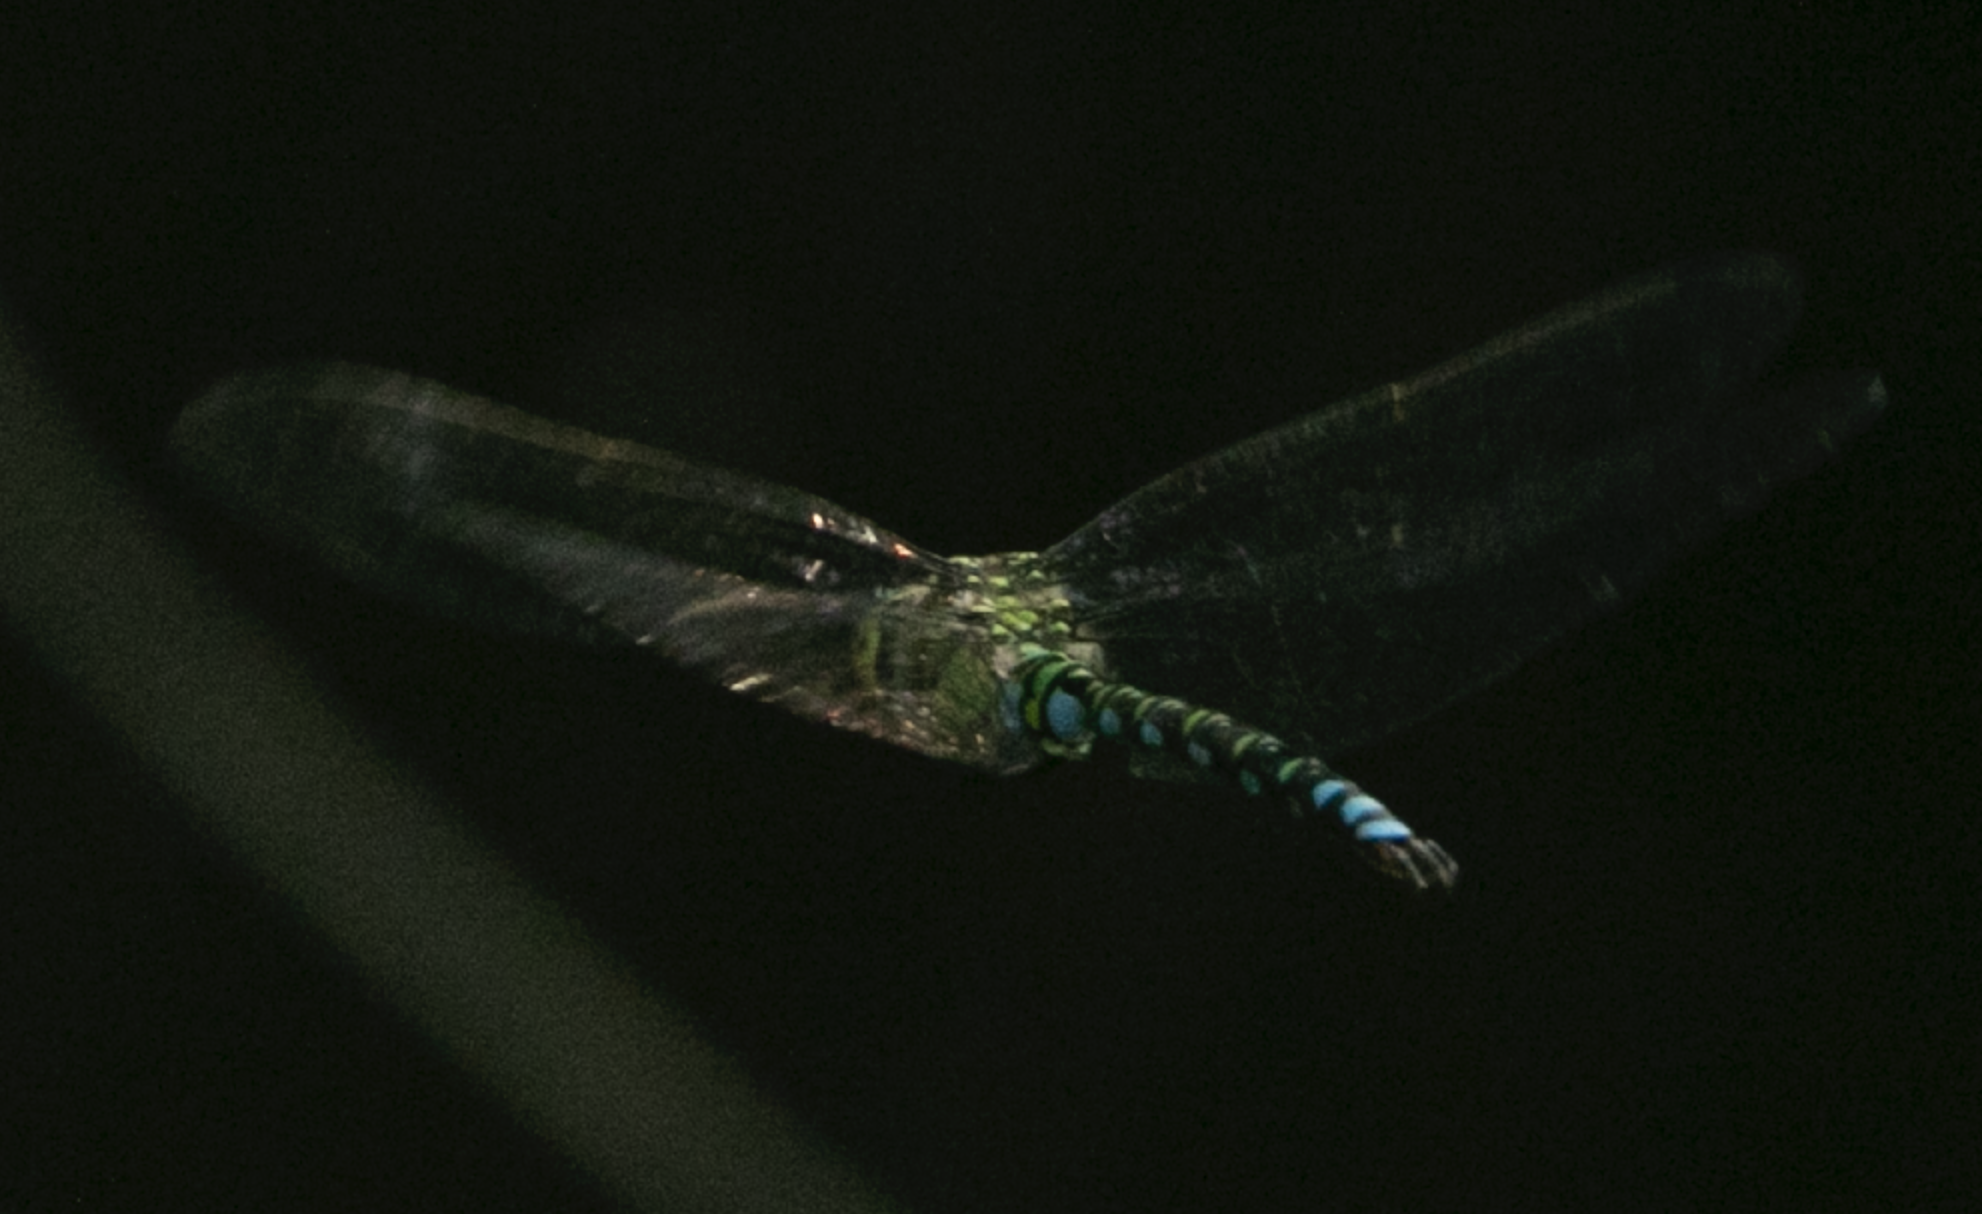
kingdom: Animalia
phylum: Arthropoda
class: Insecta
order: Odonata
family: Aeshnidae
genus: Aeshna
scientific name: Aeshna cyanea
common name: Southern hawker
